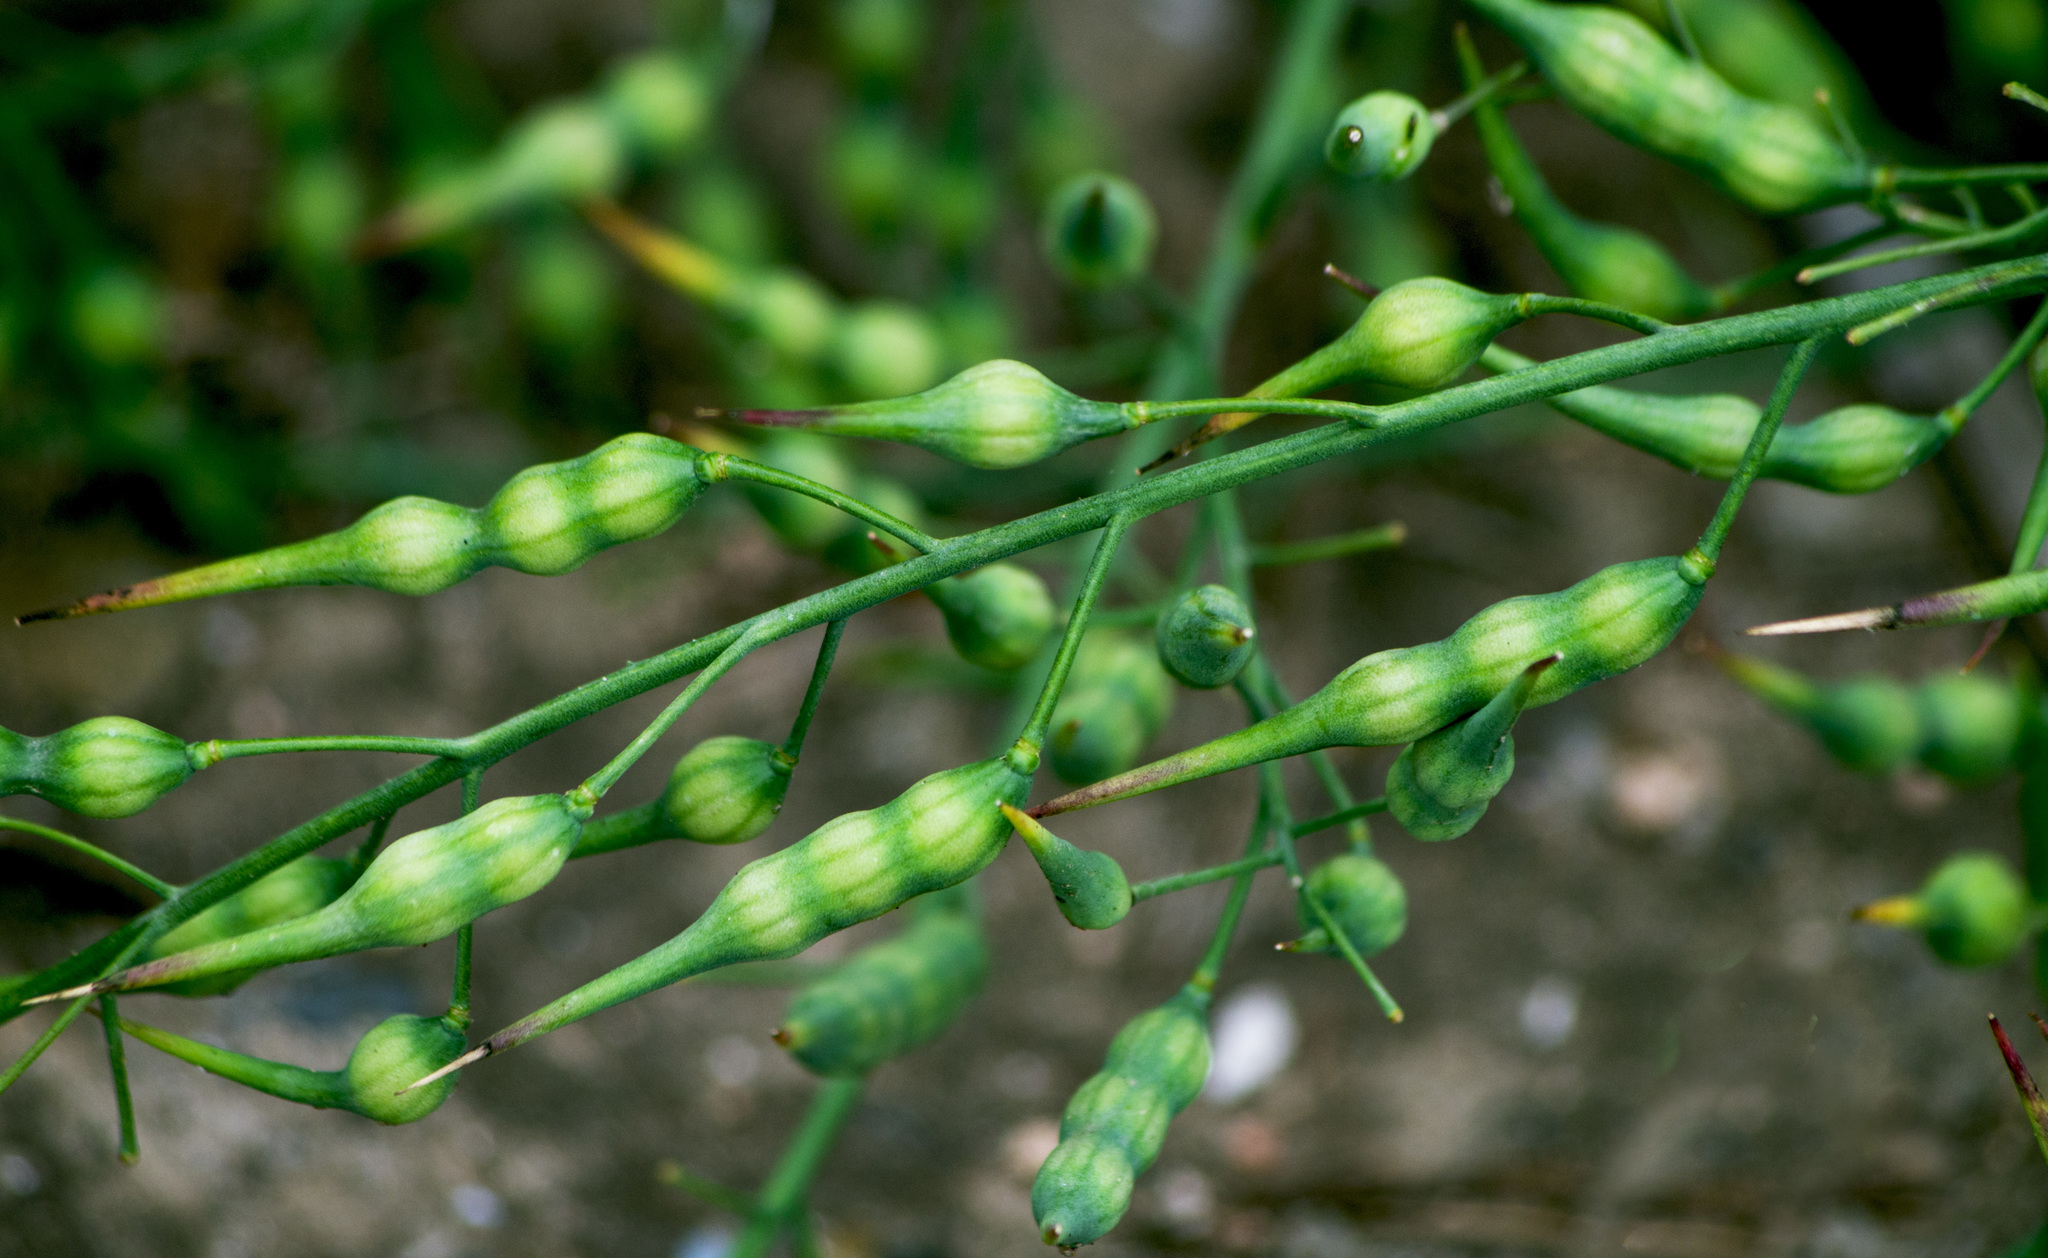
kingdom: Plantae
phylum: Tracheophyta
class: Magnoliopsida
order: Brassicales
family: Brassicaceae
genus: Raphanus
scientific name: Raphanus raphanistrum
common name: Wild radish
